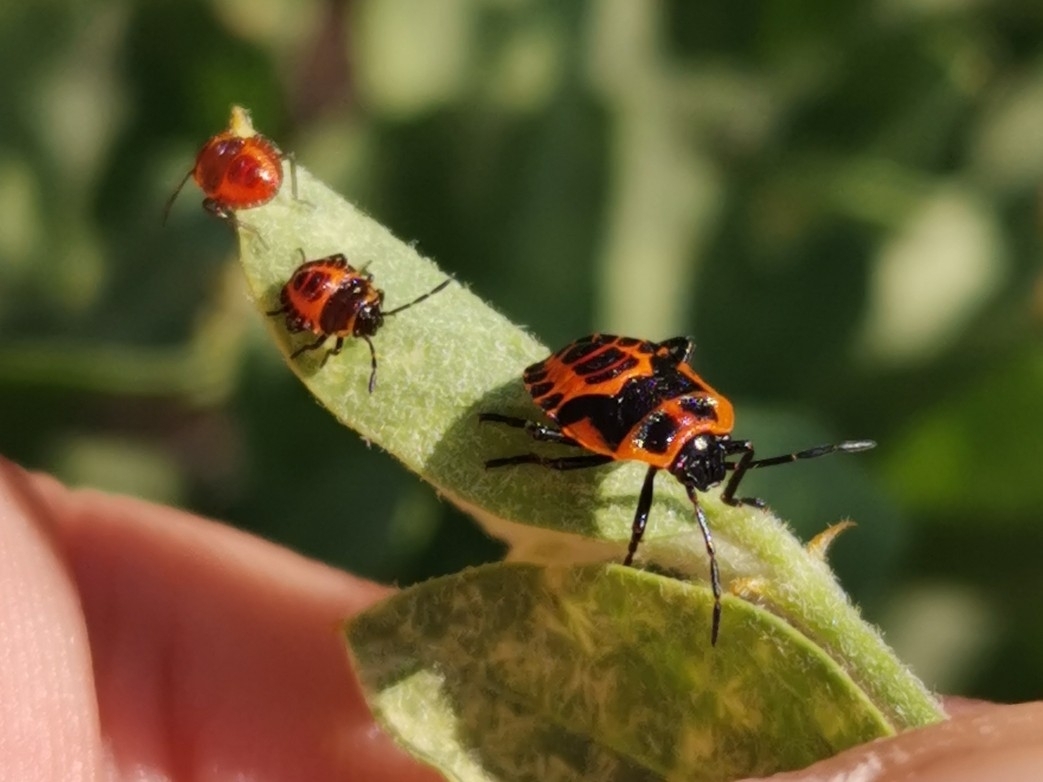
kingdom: Animalia
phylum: Arthropoda
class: Insecta
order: Hemiptera
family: Pentatomidae
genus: Eurydema
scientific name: Eurydema eckerleini
